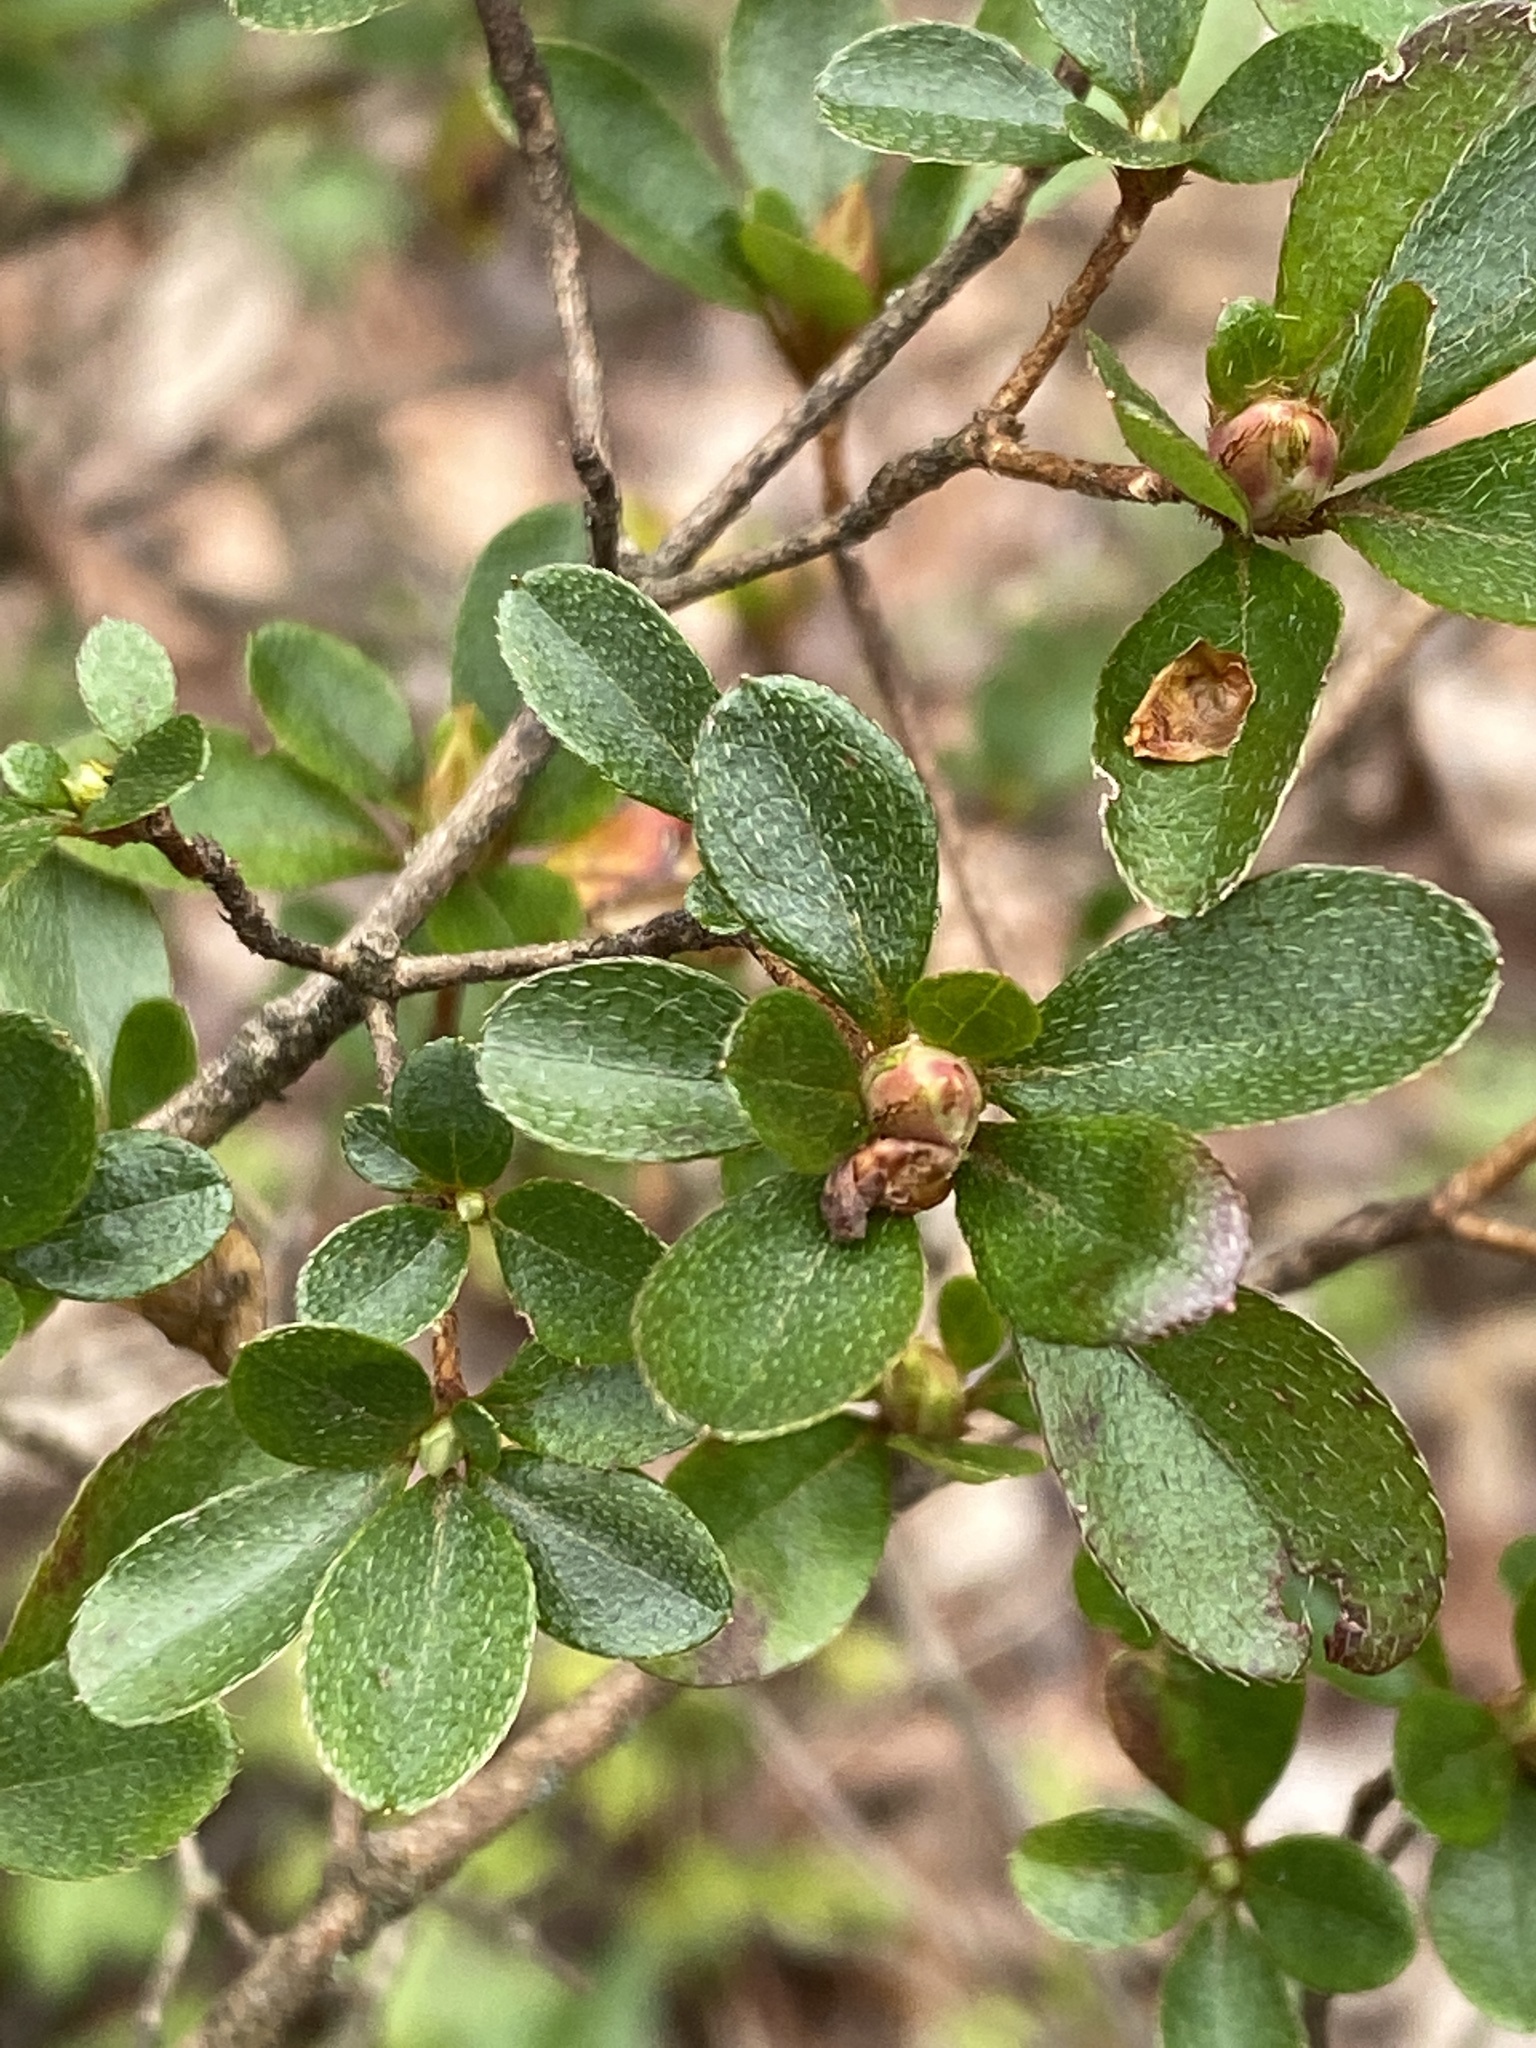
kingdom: Plantae
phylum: Tracheophyta
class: Magnoliopsida
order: Ericales
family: Ericaceae
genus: Rhododendron
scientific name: Rhododendron indicum
